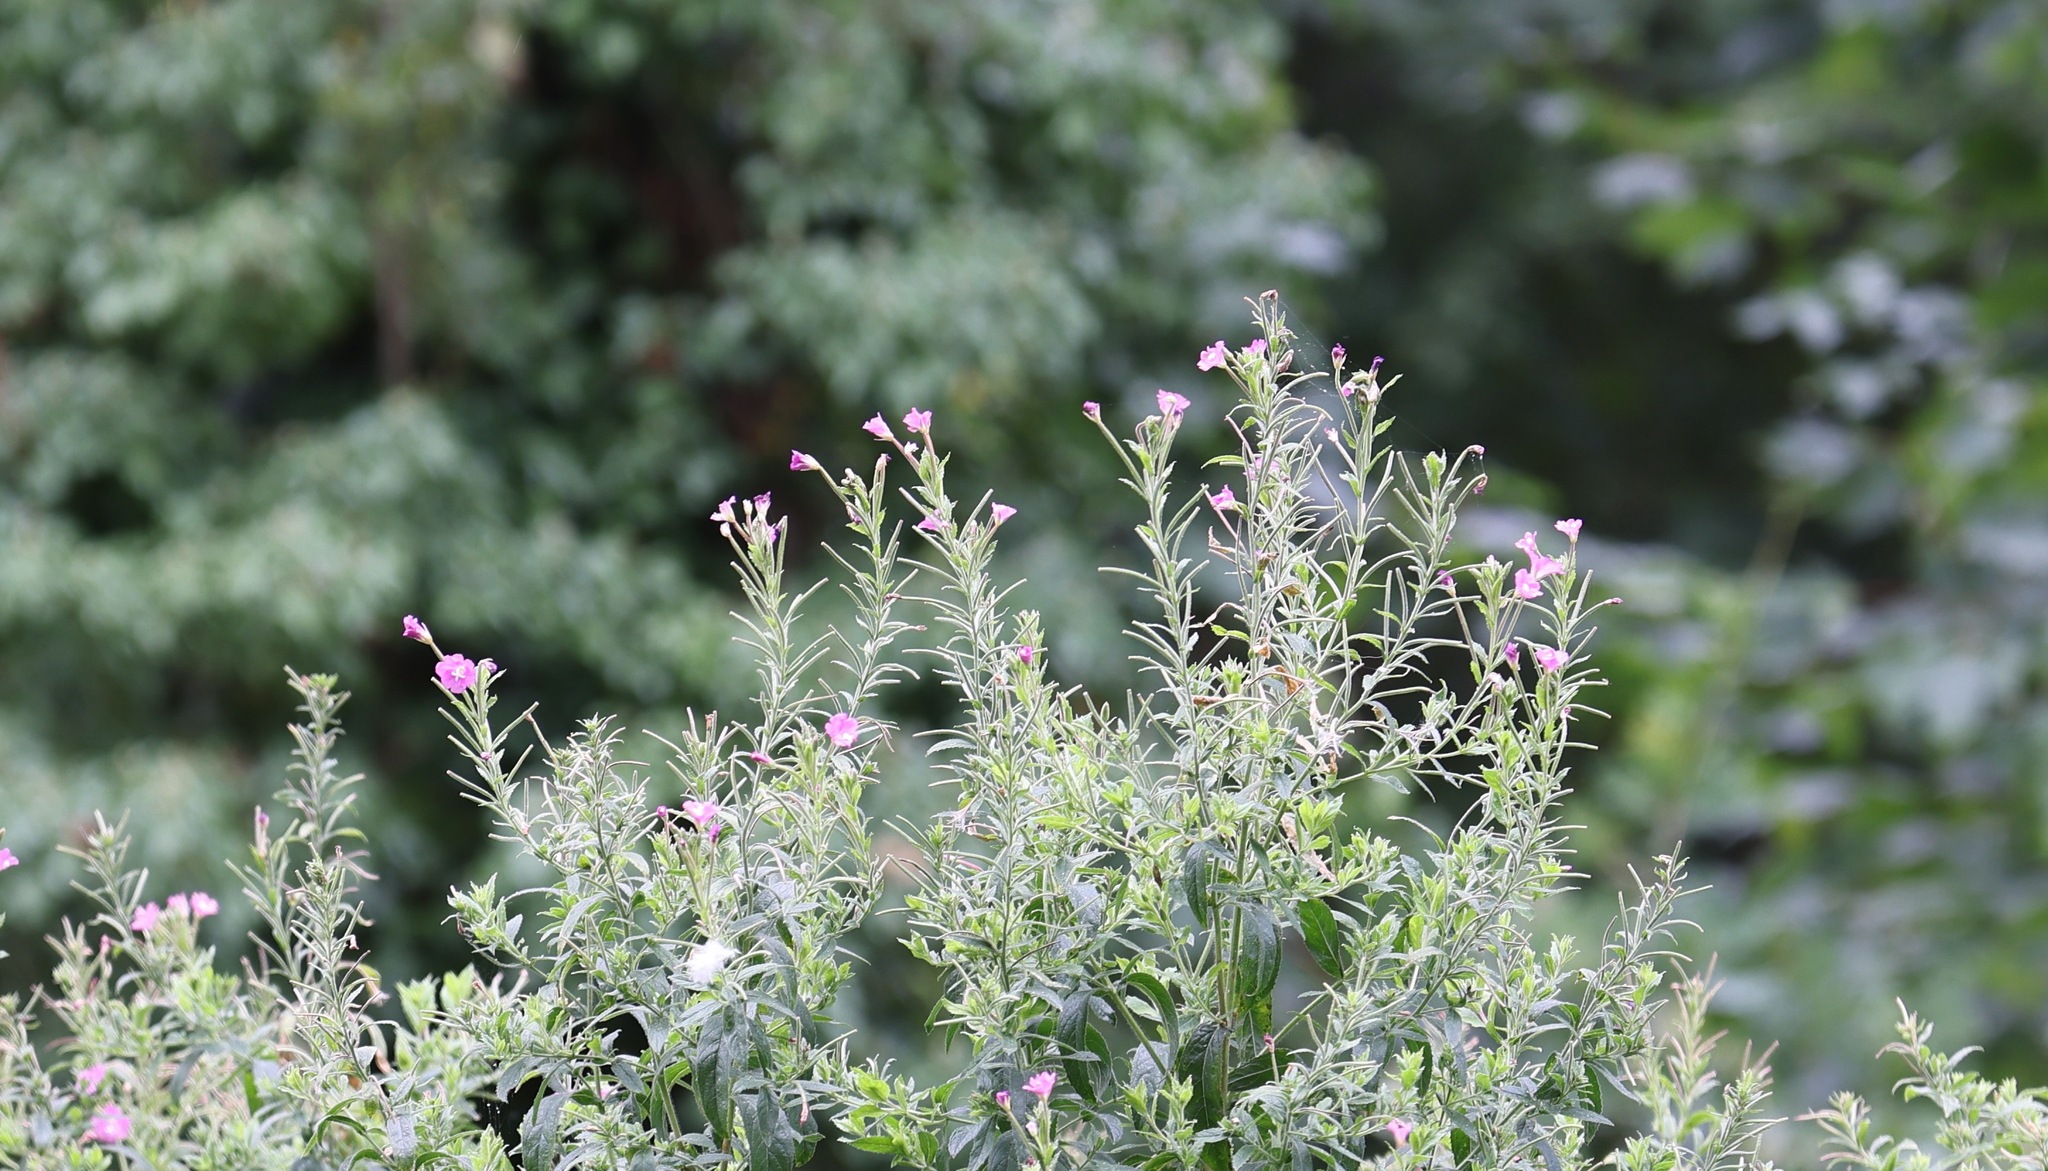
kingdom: Plantae
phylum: Tracheophyta
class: Magnoliopsida
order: Myrtales
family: Onagraceae
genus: Epilobium
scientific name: Epilobium hirsutum
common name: Great willowherb
